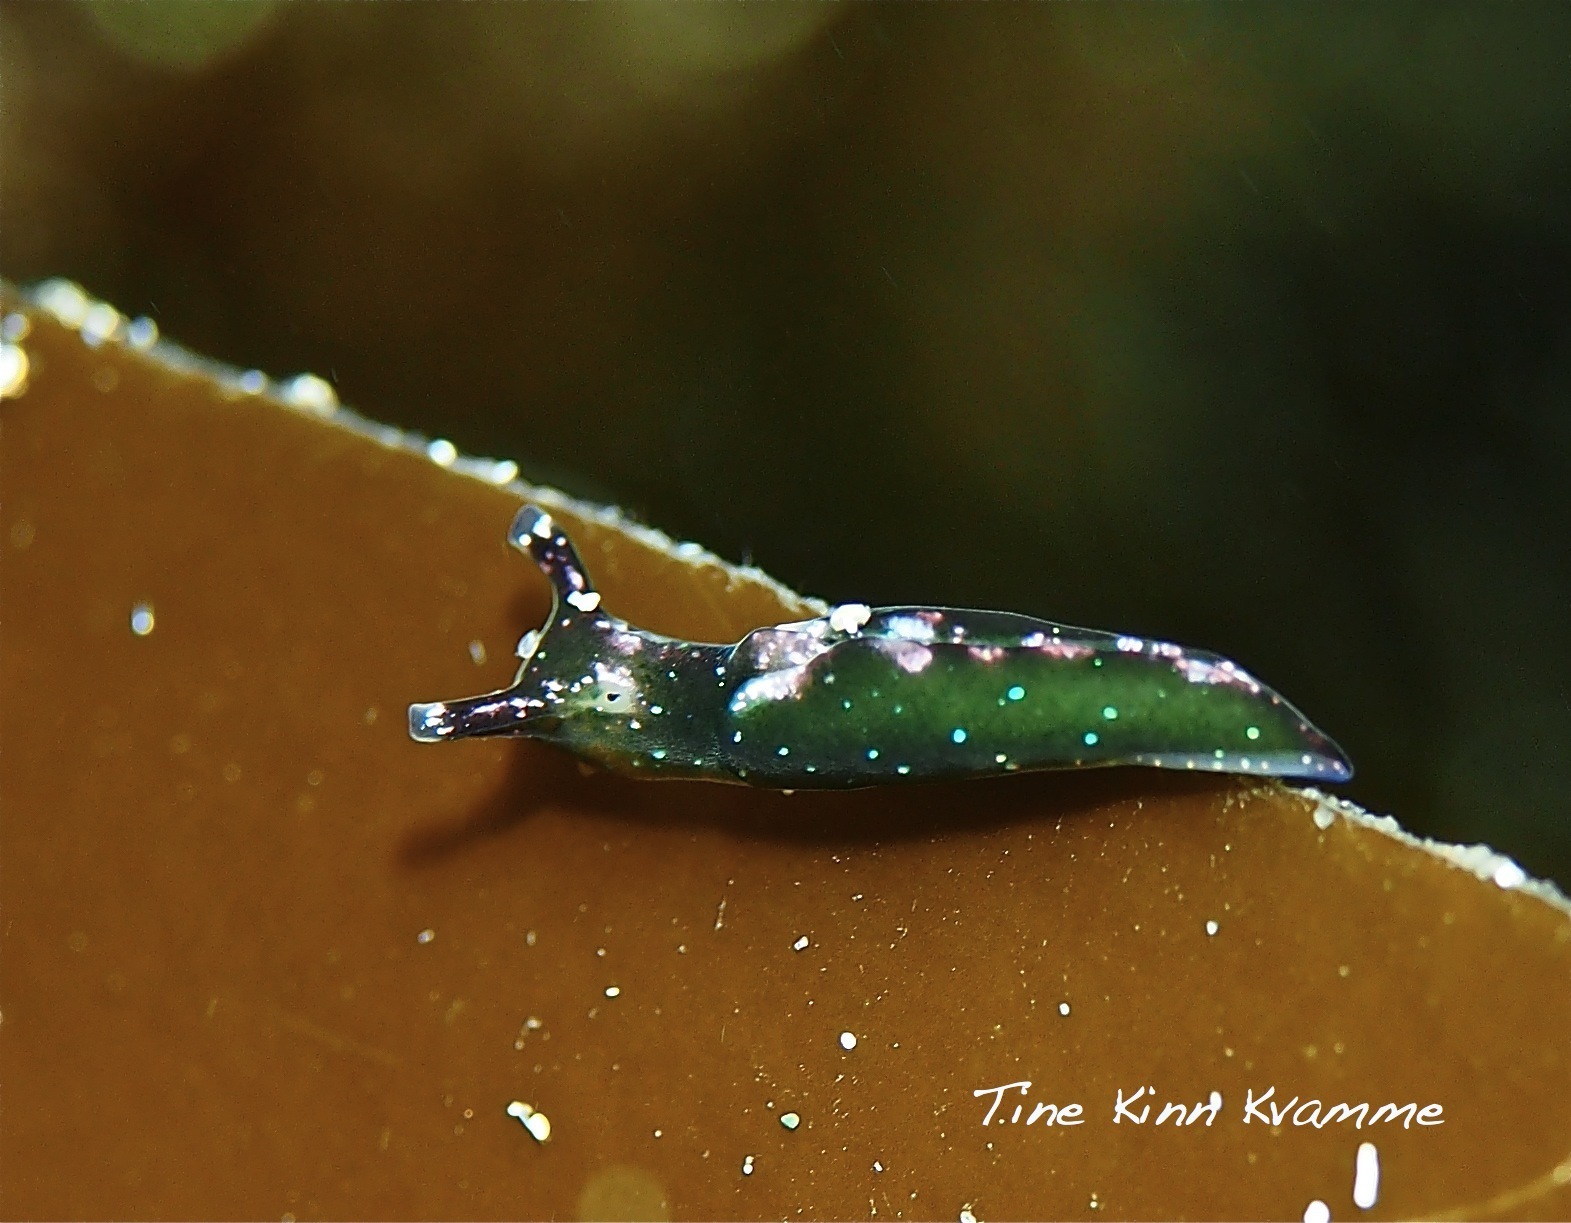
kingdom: Animalia
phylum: Mollusca
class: Gastropoda
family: Plakobranchidae
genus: Elysia
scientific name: Elysia viridis
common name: Green elysia
